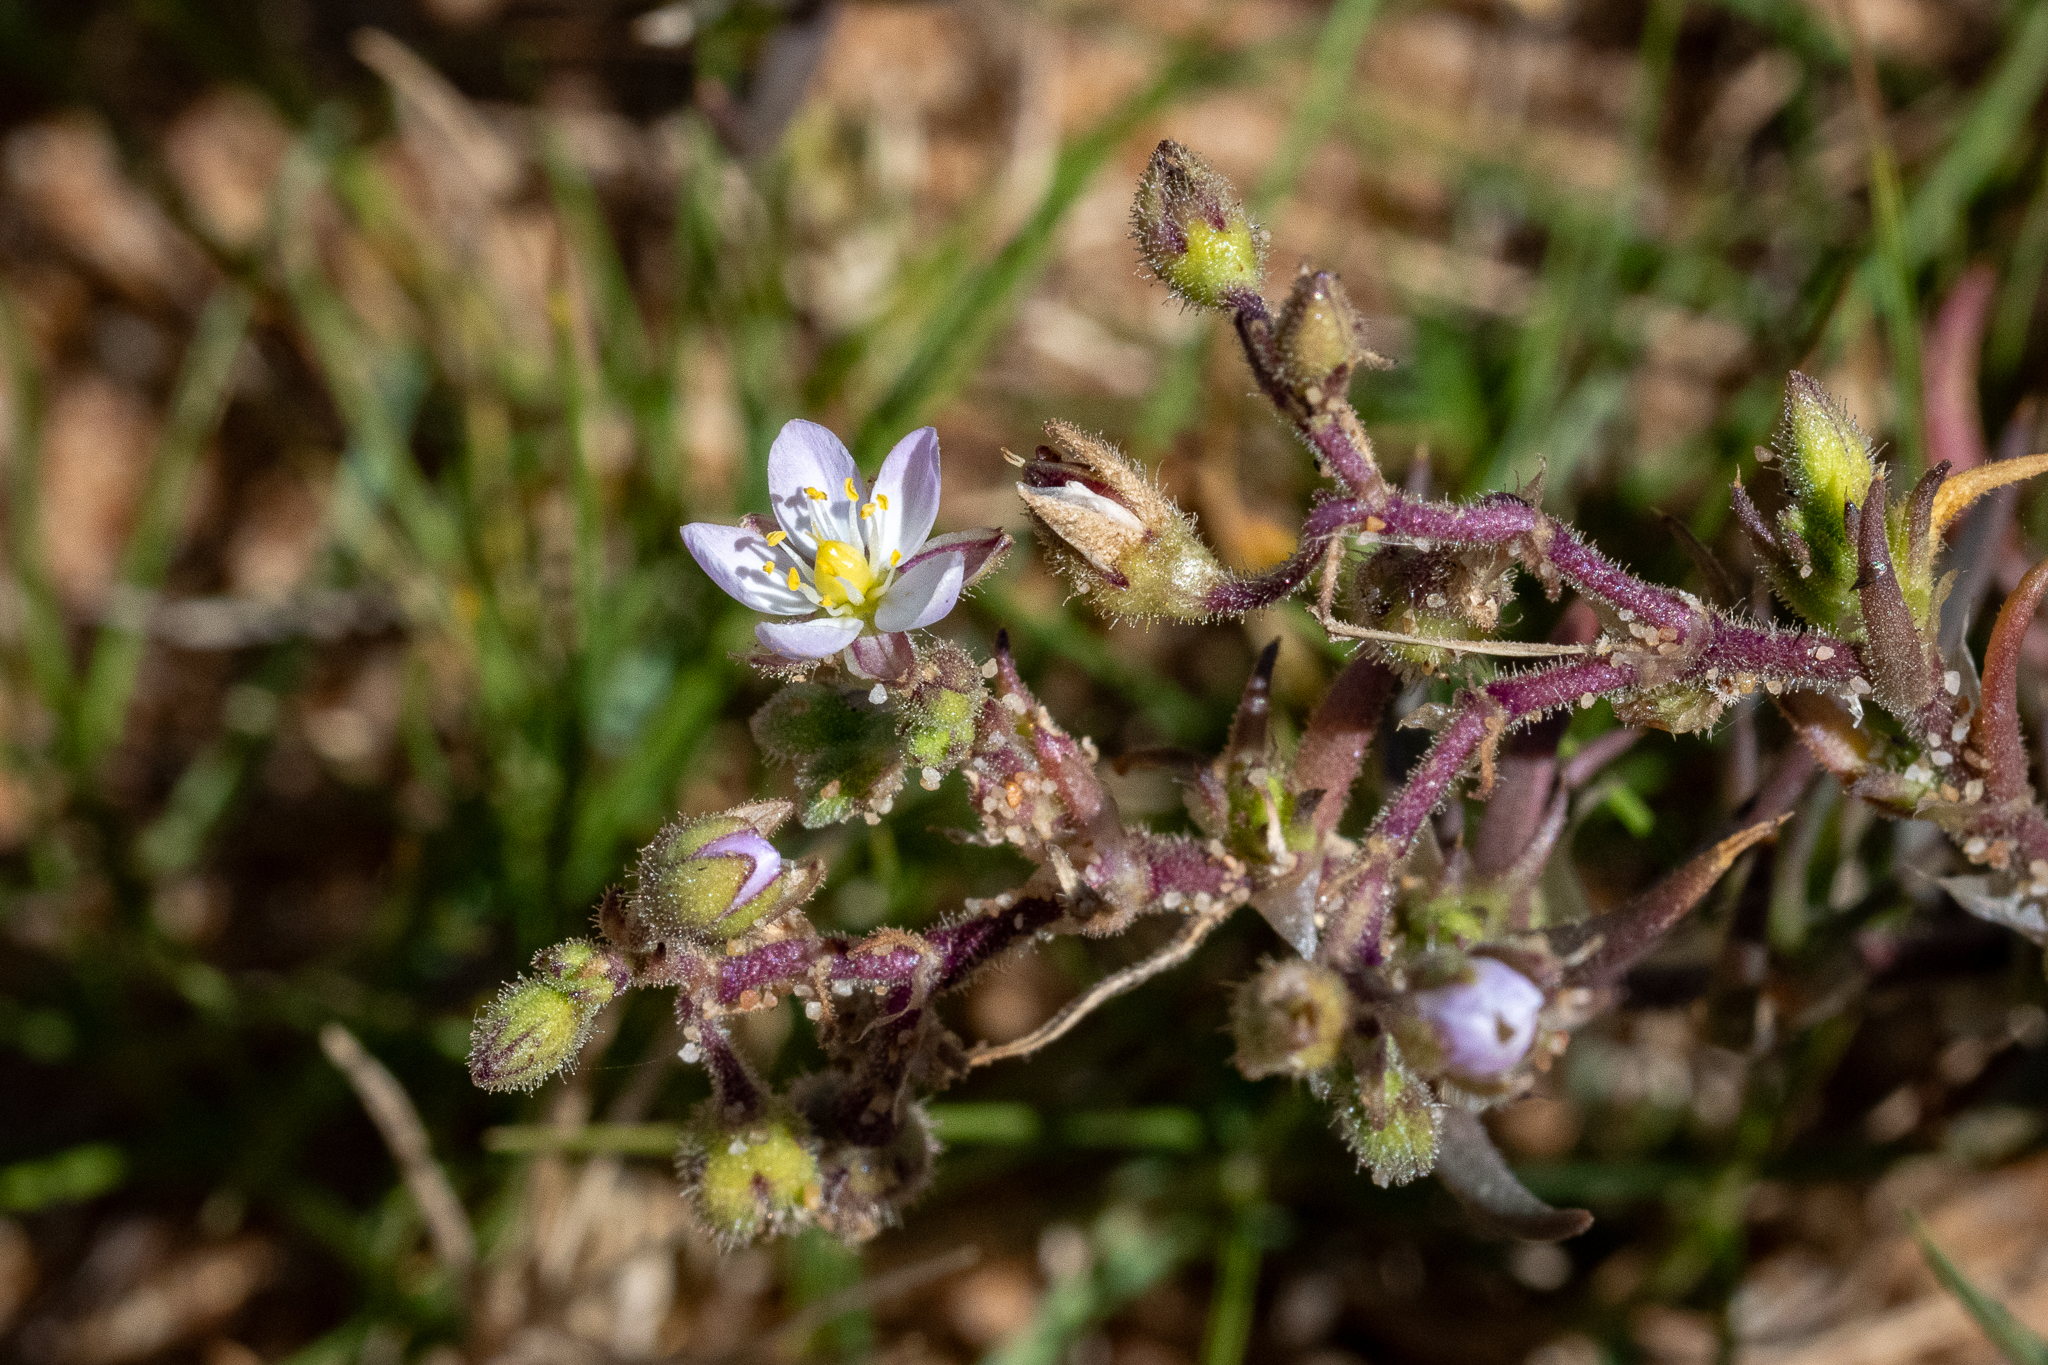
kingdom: Plantae
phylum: Tracheophyta
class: Magnoliopsida
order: Caryophyllales
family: Caryophyllaceae
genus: Spergularia
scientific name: Spergularia media
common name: Greater sea-spurrey
